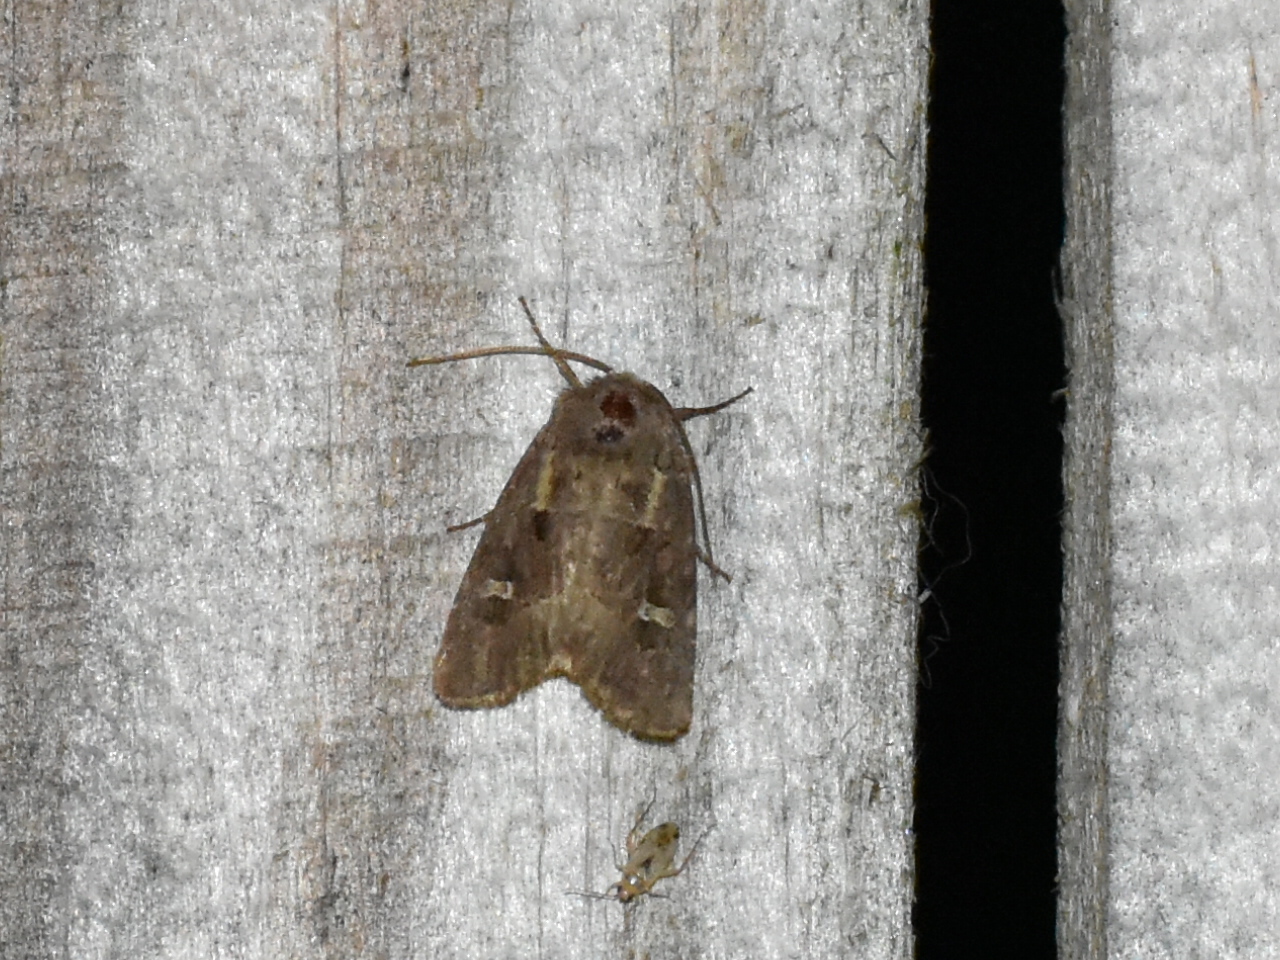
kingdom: Animalia
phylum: Arthropoda
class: Insecta
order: Lepidoptera
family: Noctuidae
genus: Lacinipolia
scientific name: Lacinipolia renigera
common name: Kidney-spotted minor
